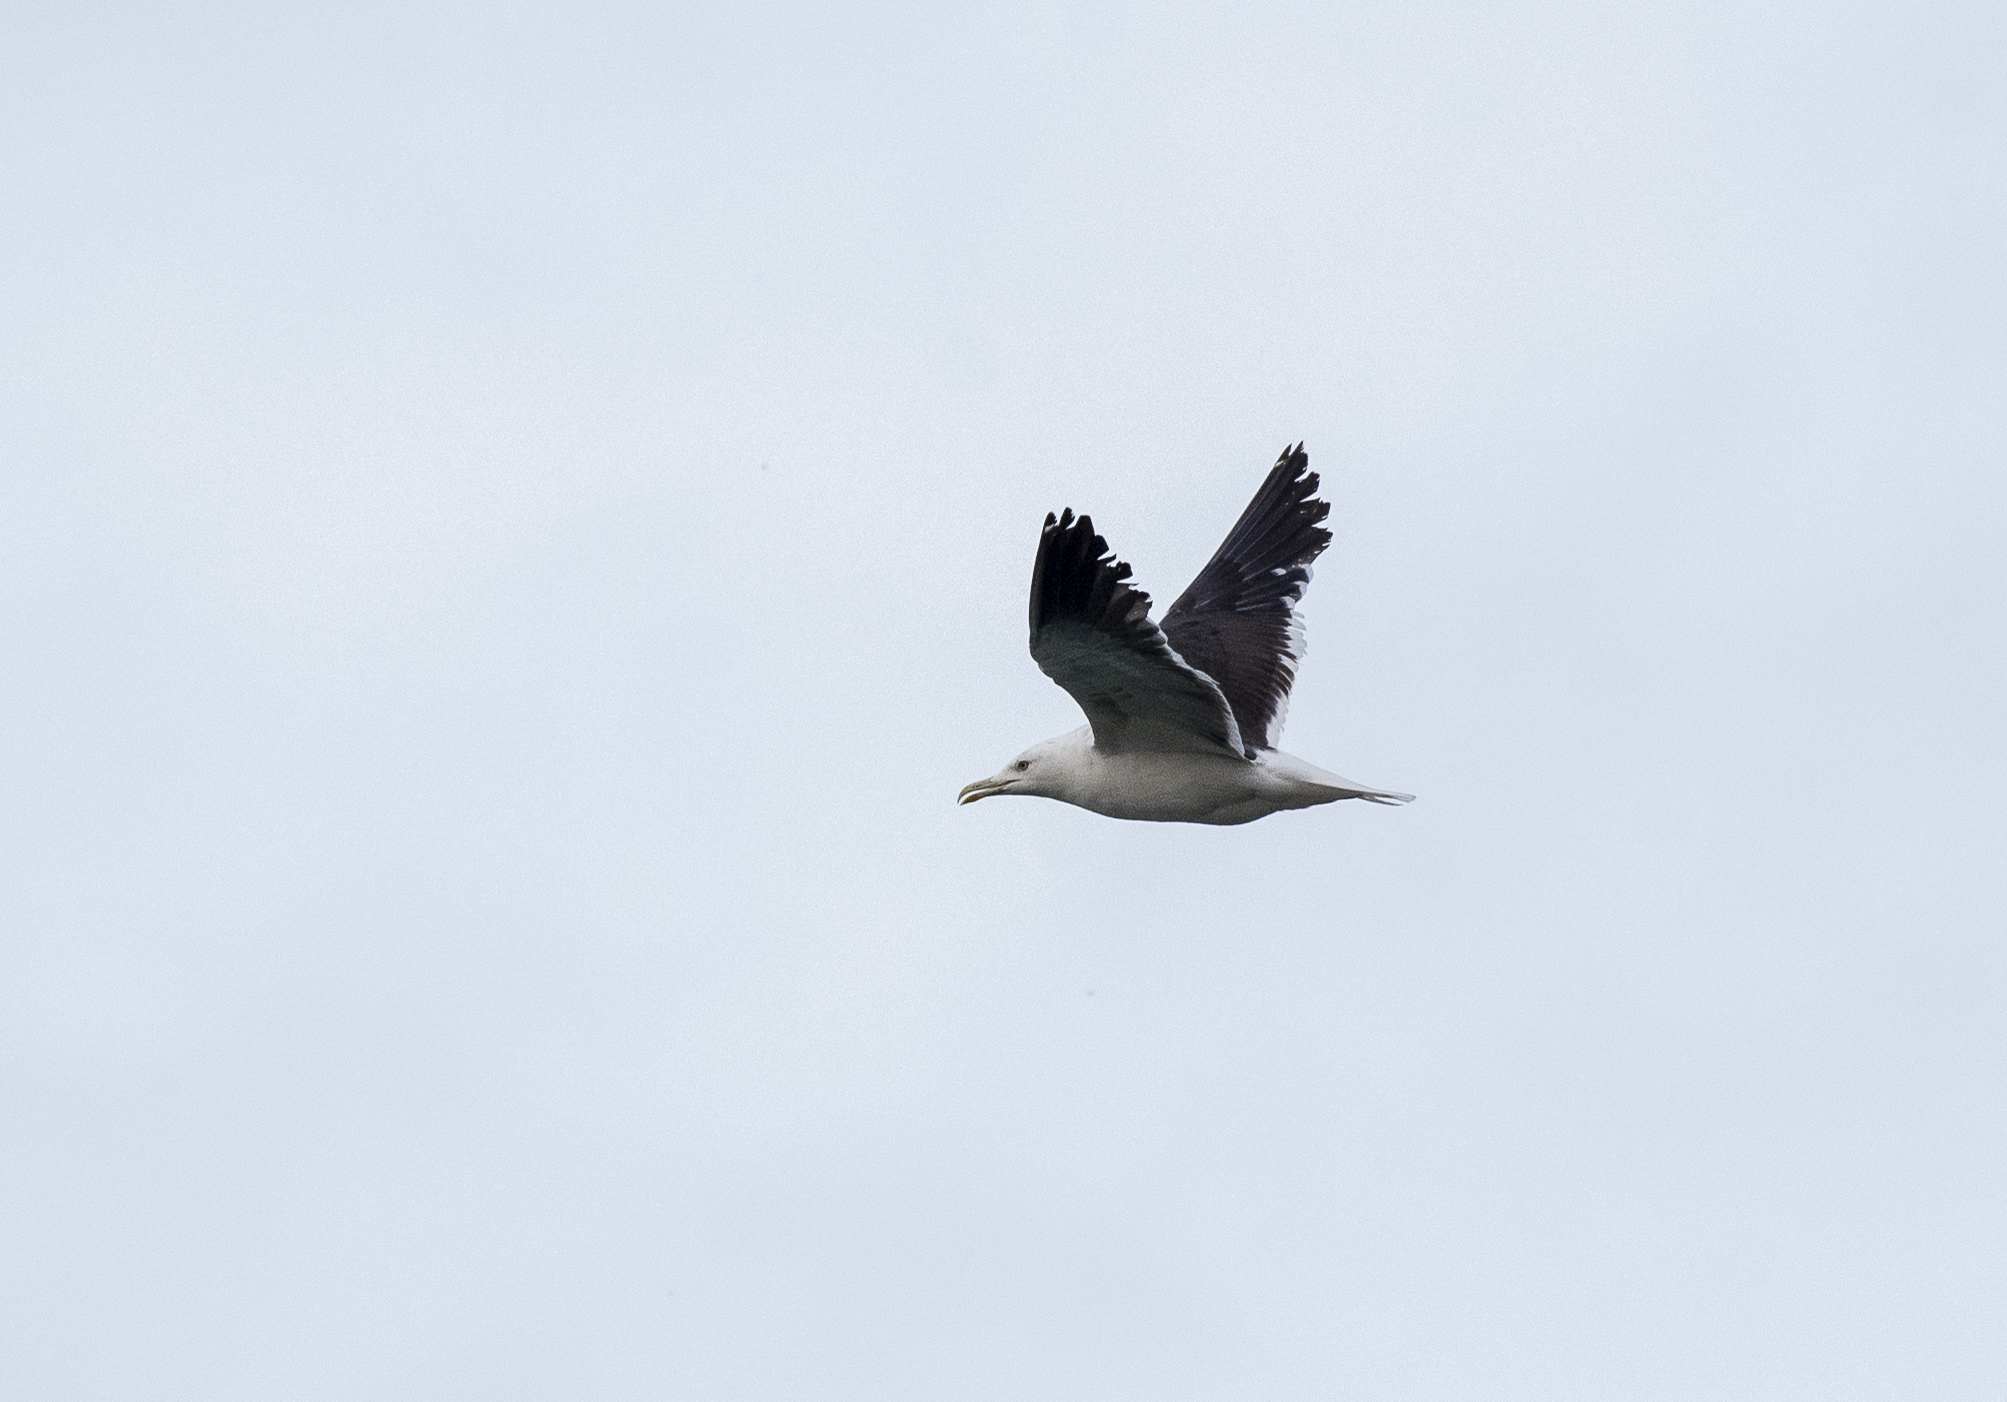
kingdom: Animalia
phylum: Chordata
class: Aves
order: Charadriiformes
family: Laridae
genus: Larus
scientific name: Larus fuscus
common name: Lesser black-backed gull
